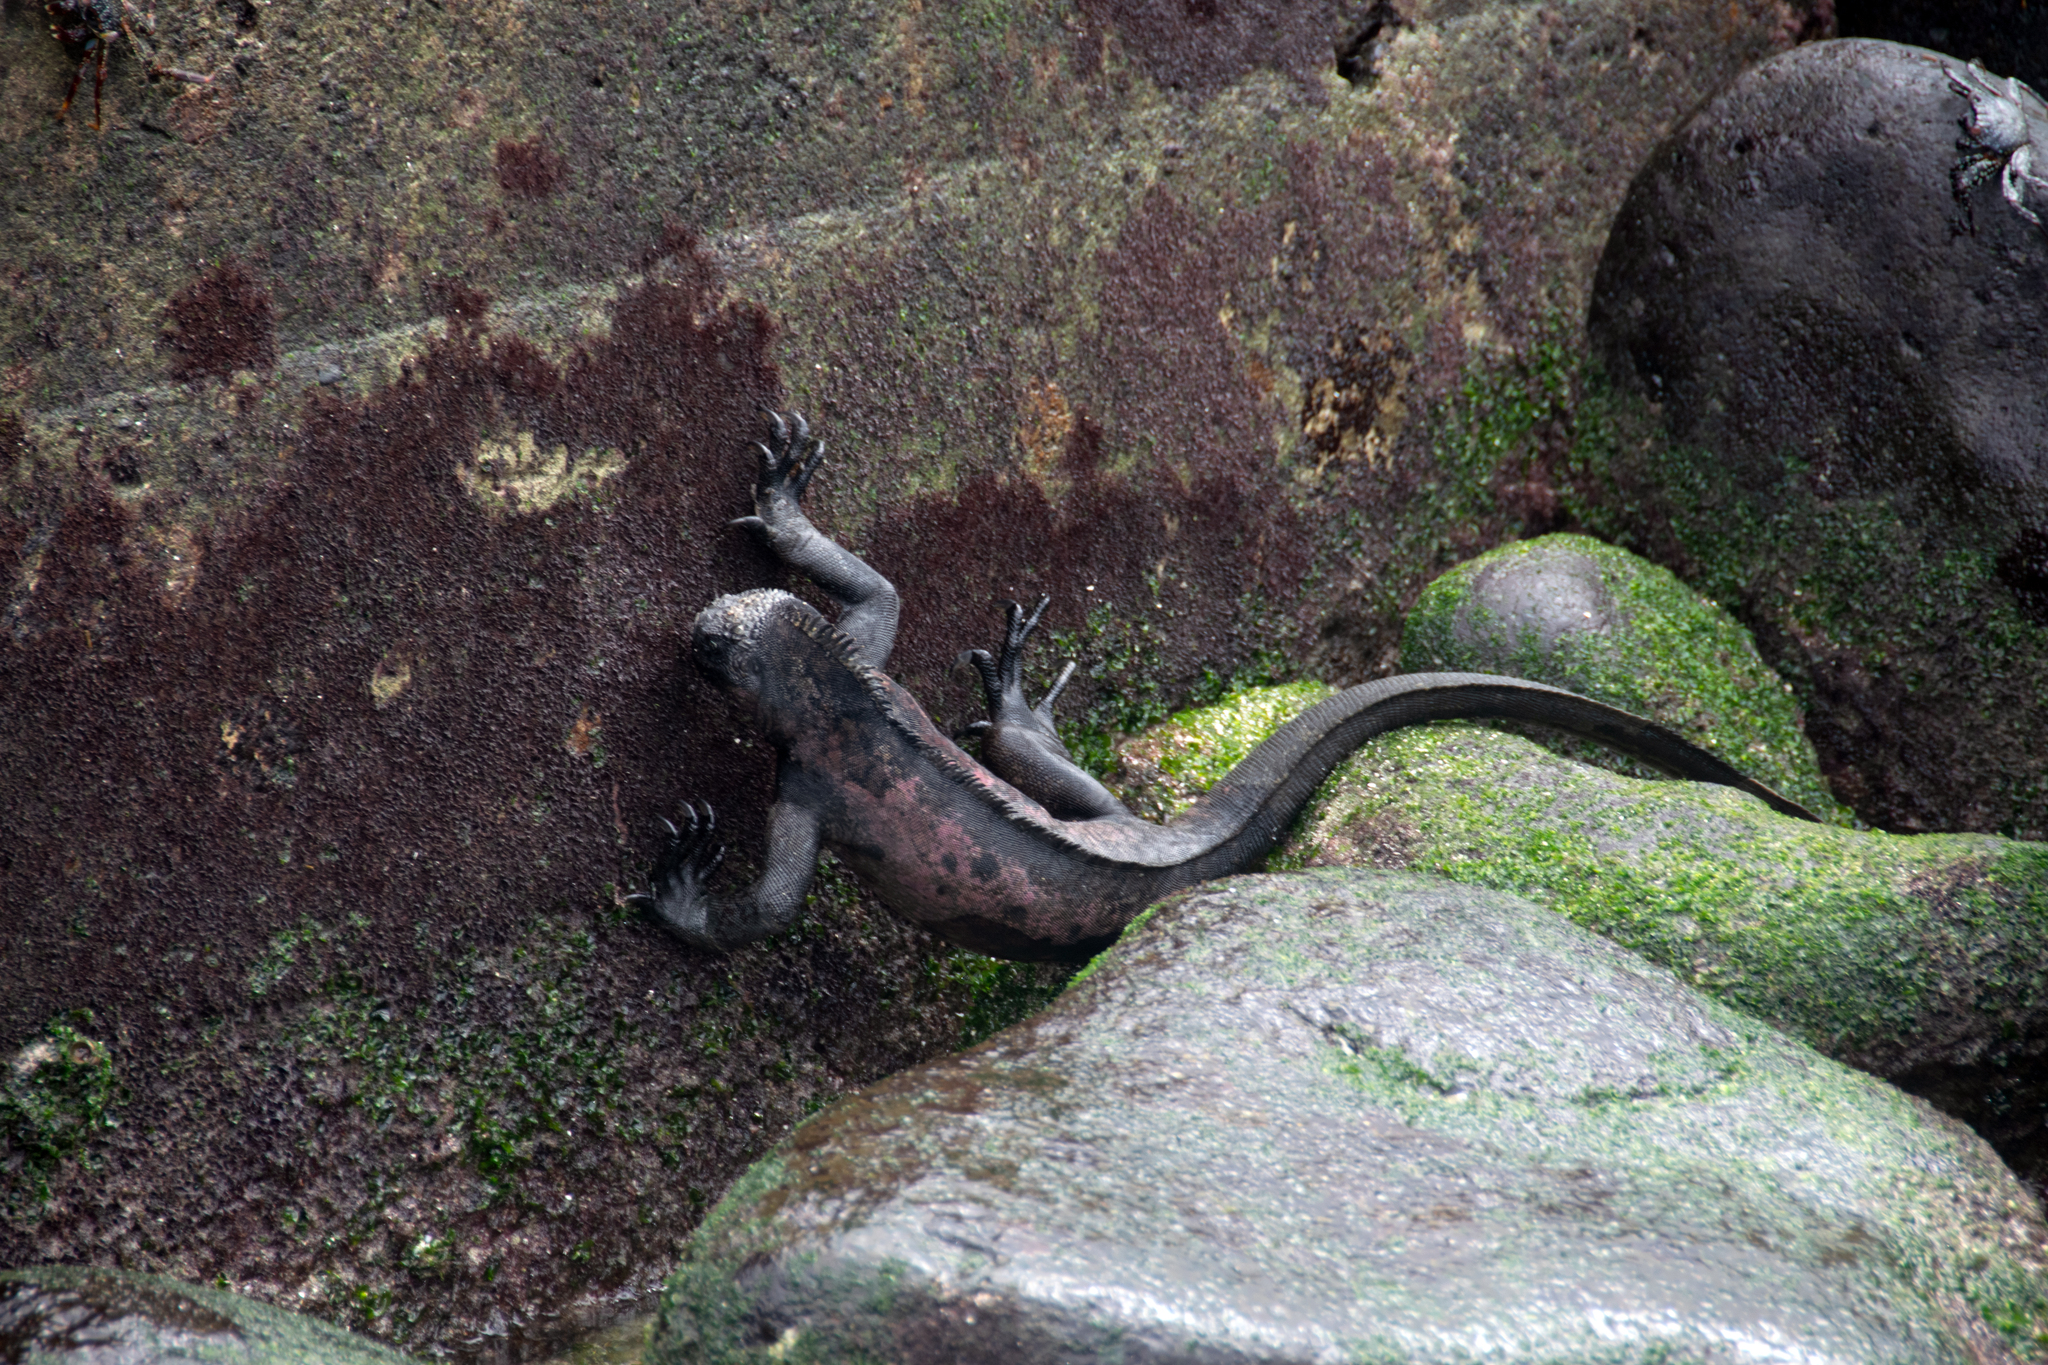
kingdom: Animalia
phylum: Chordata
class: Squamata
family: Iguanidae
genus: Amblyrhynchus
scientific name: Amblyrhynchus cristatus
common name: Marine iguana
